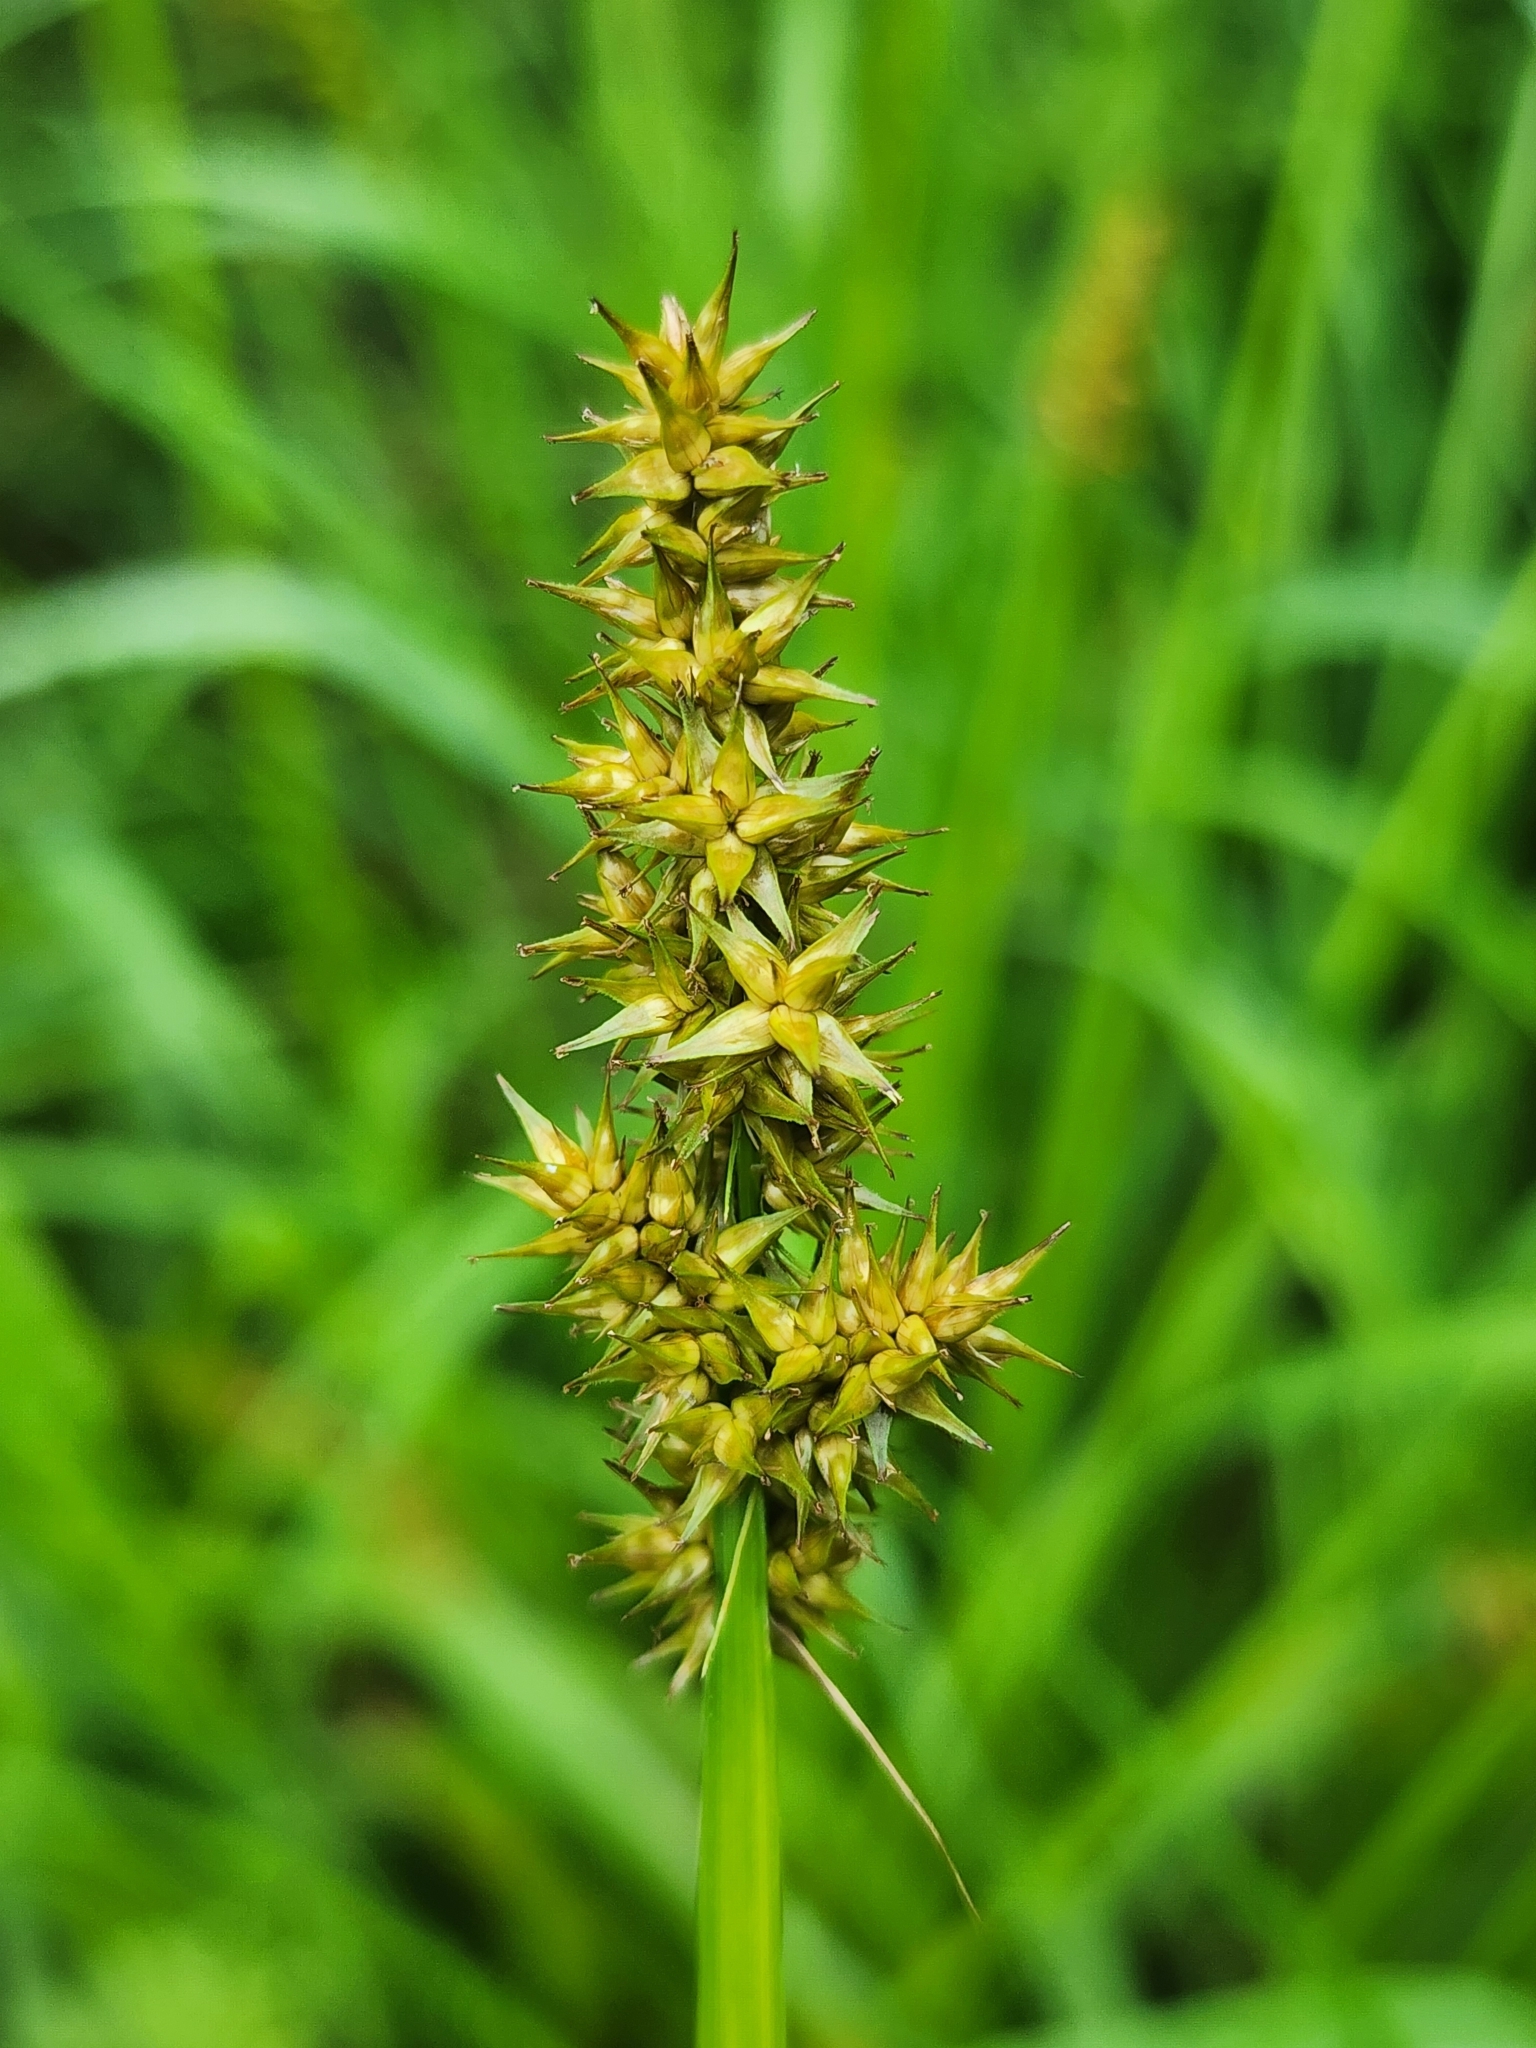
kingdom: Plantae
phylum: Tracheophyta
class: Liliopsida
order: Poales
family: Cyperaceae
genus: Carex
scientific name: Carex stipata
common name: Awl-fruited sedge
